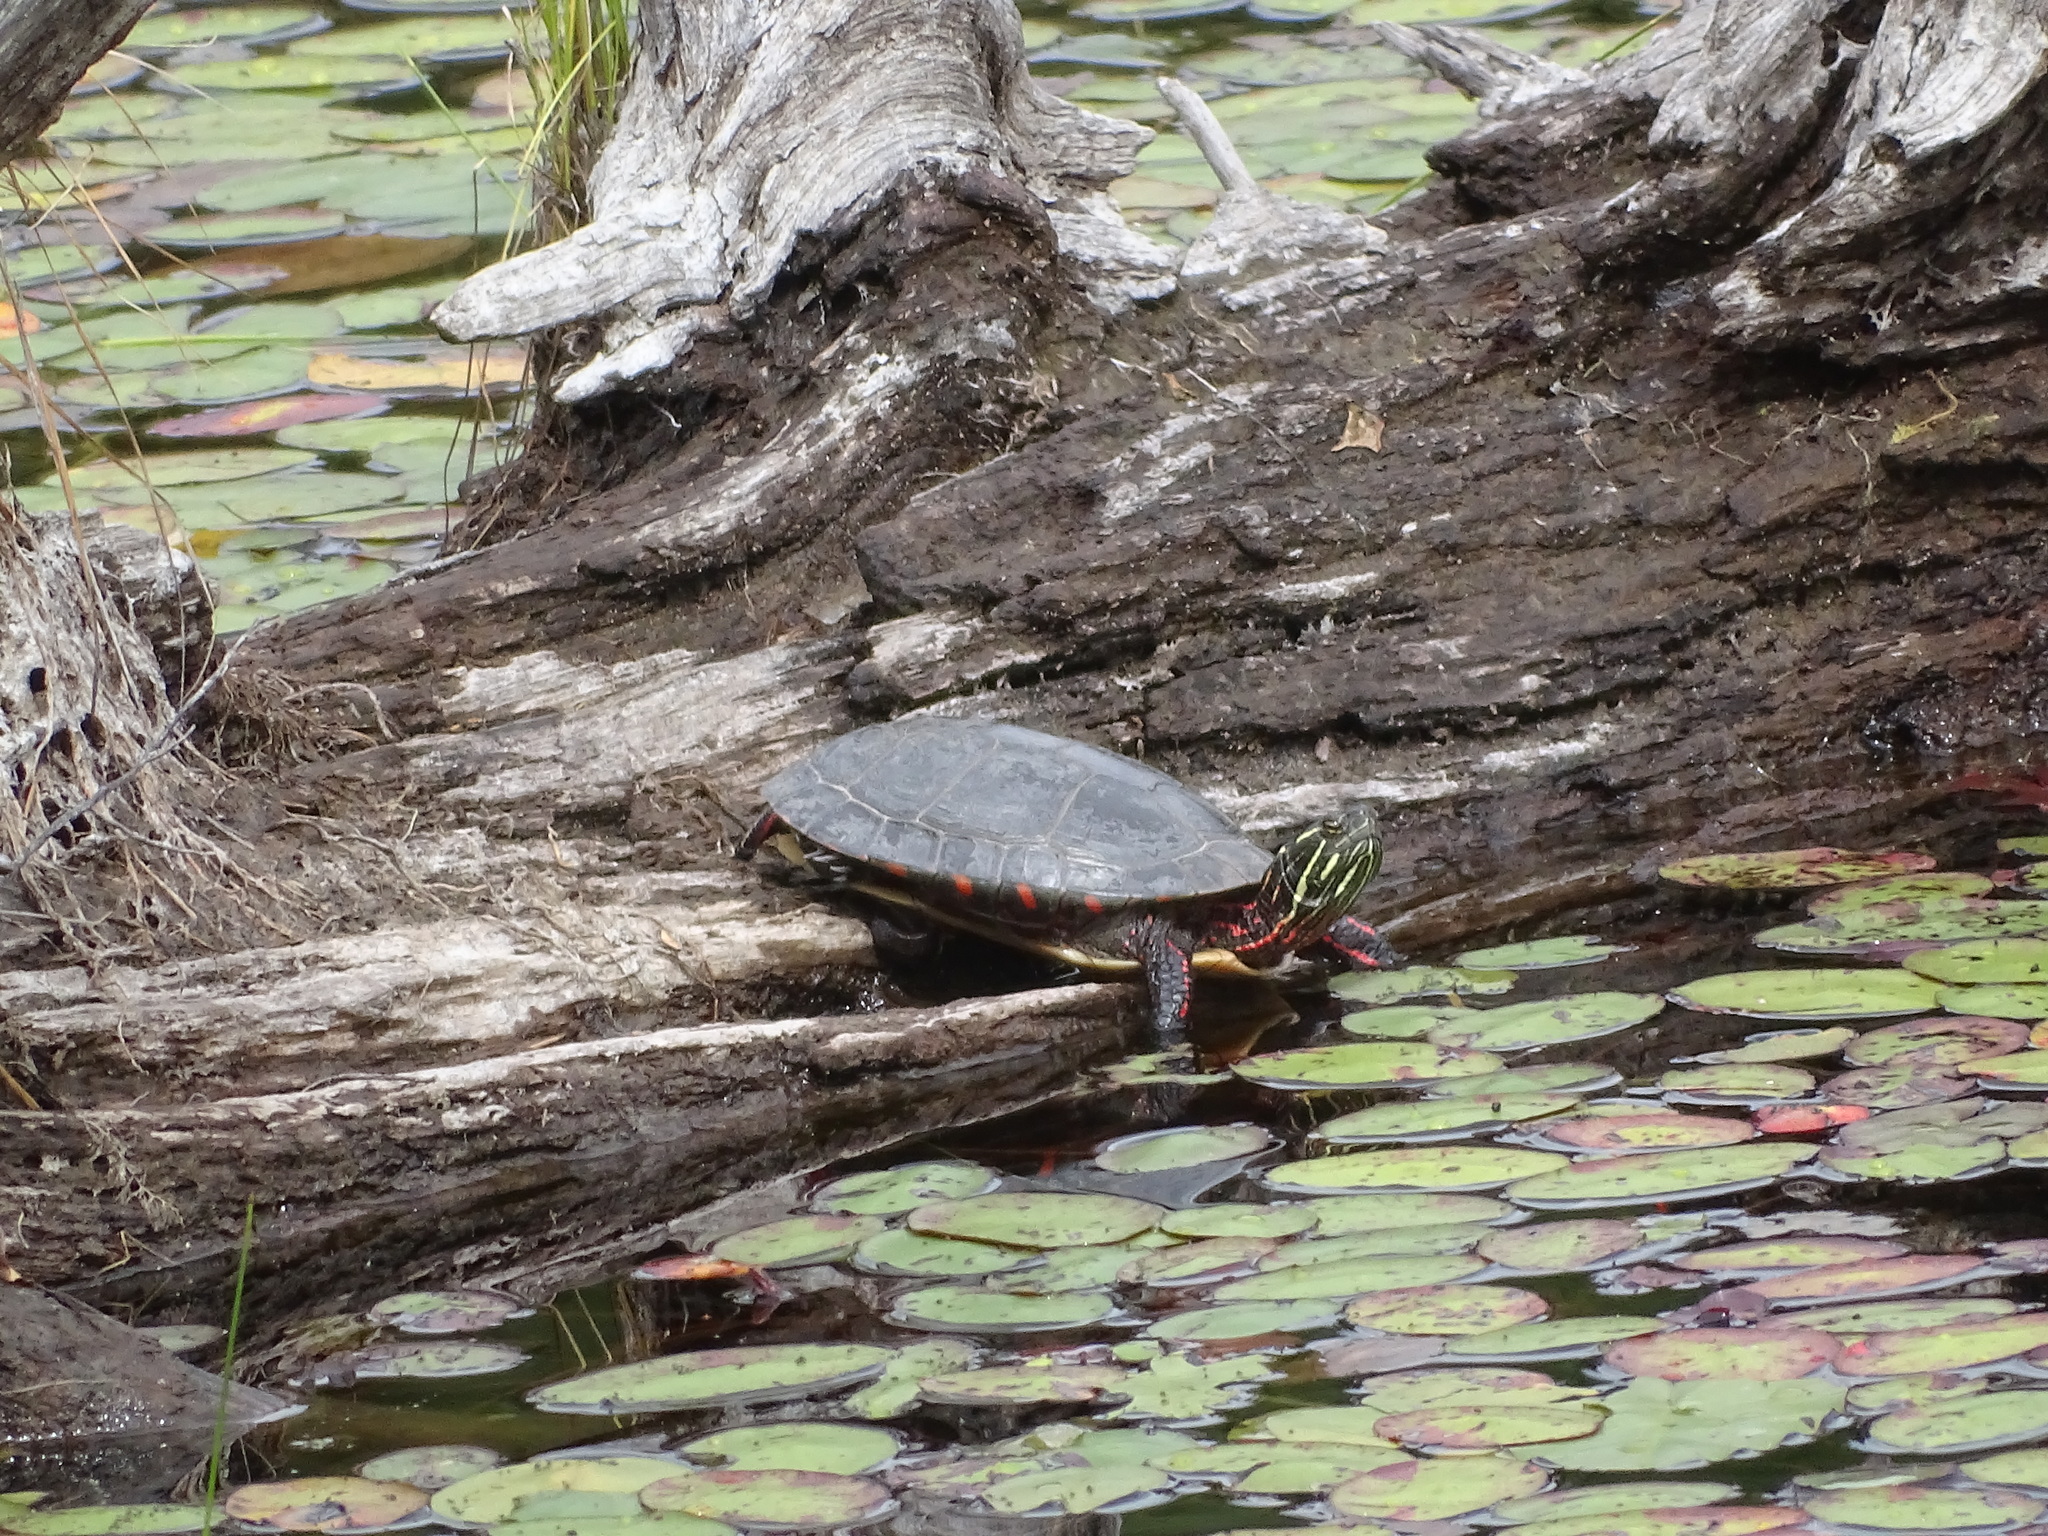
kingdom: Animalia
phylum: Chordata
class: Testudines
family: Emydidae
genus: Chrysemys
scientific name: Chrysemys picta
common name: Painted turtle
